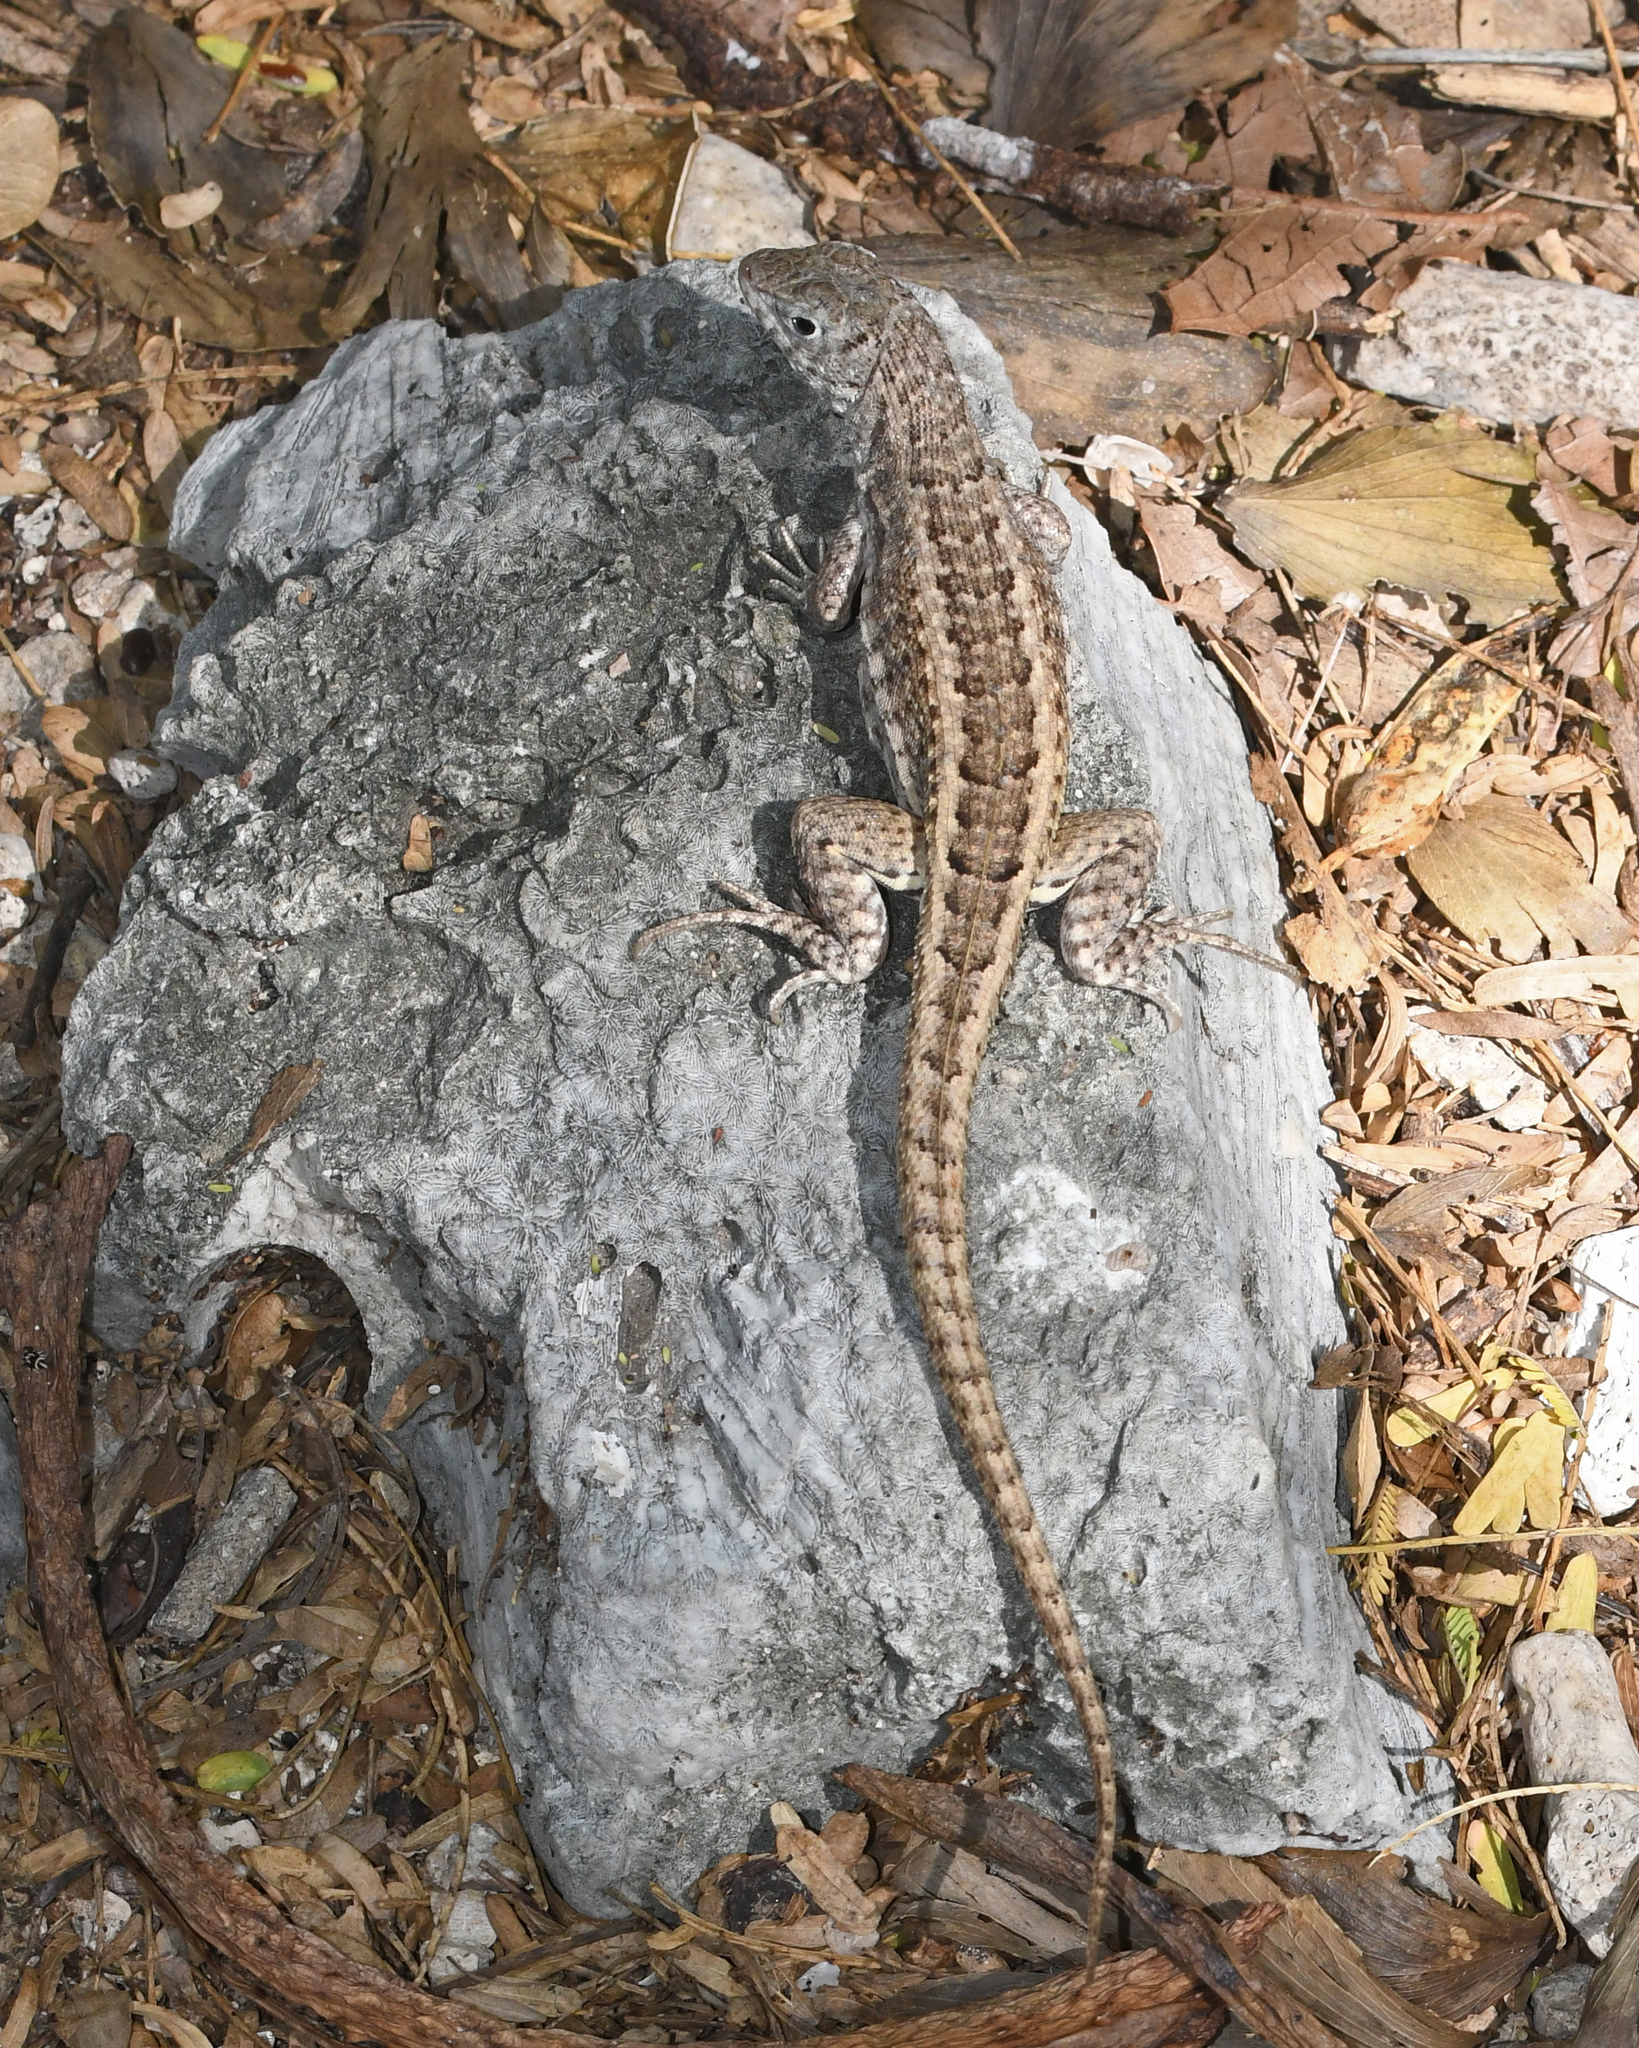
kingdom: Animalia
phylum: Chordata
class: Squamata
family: Leiocephalidae
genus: Leiocephalus
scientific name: Leiocephalus schreibersii
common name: Red-sided curly-tailed lizard
